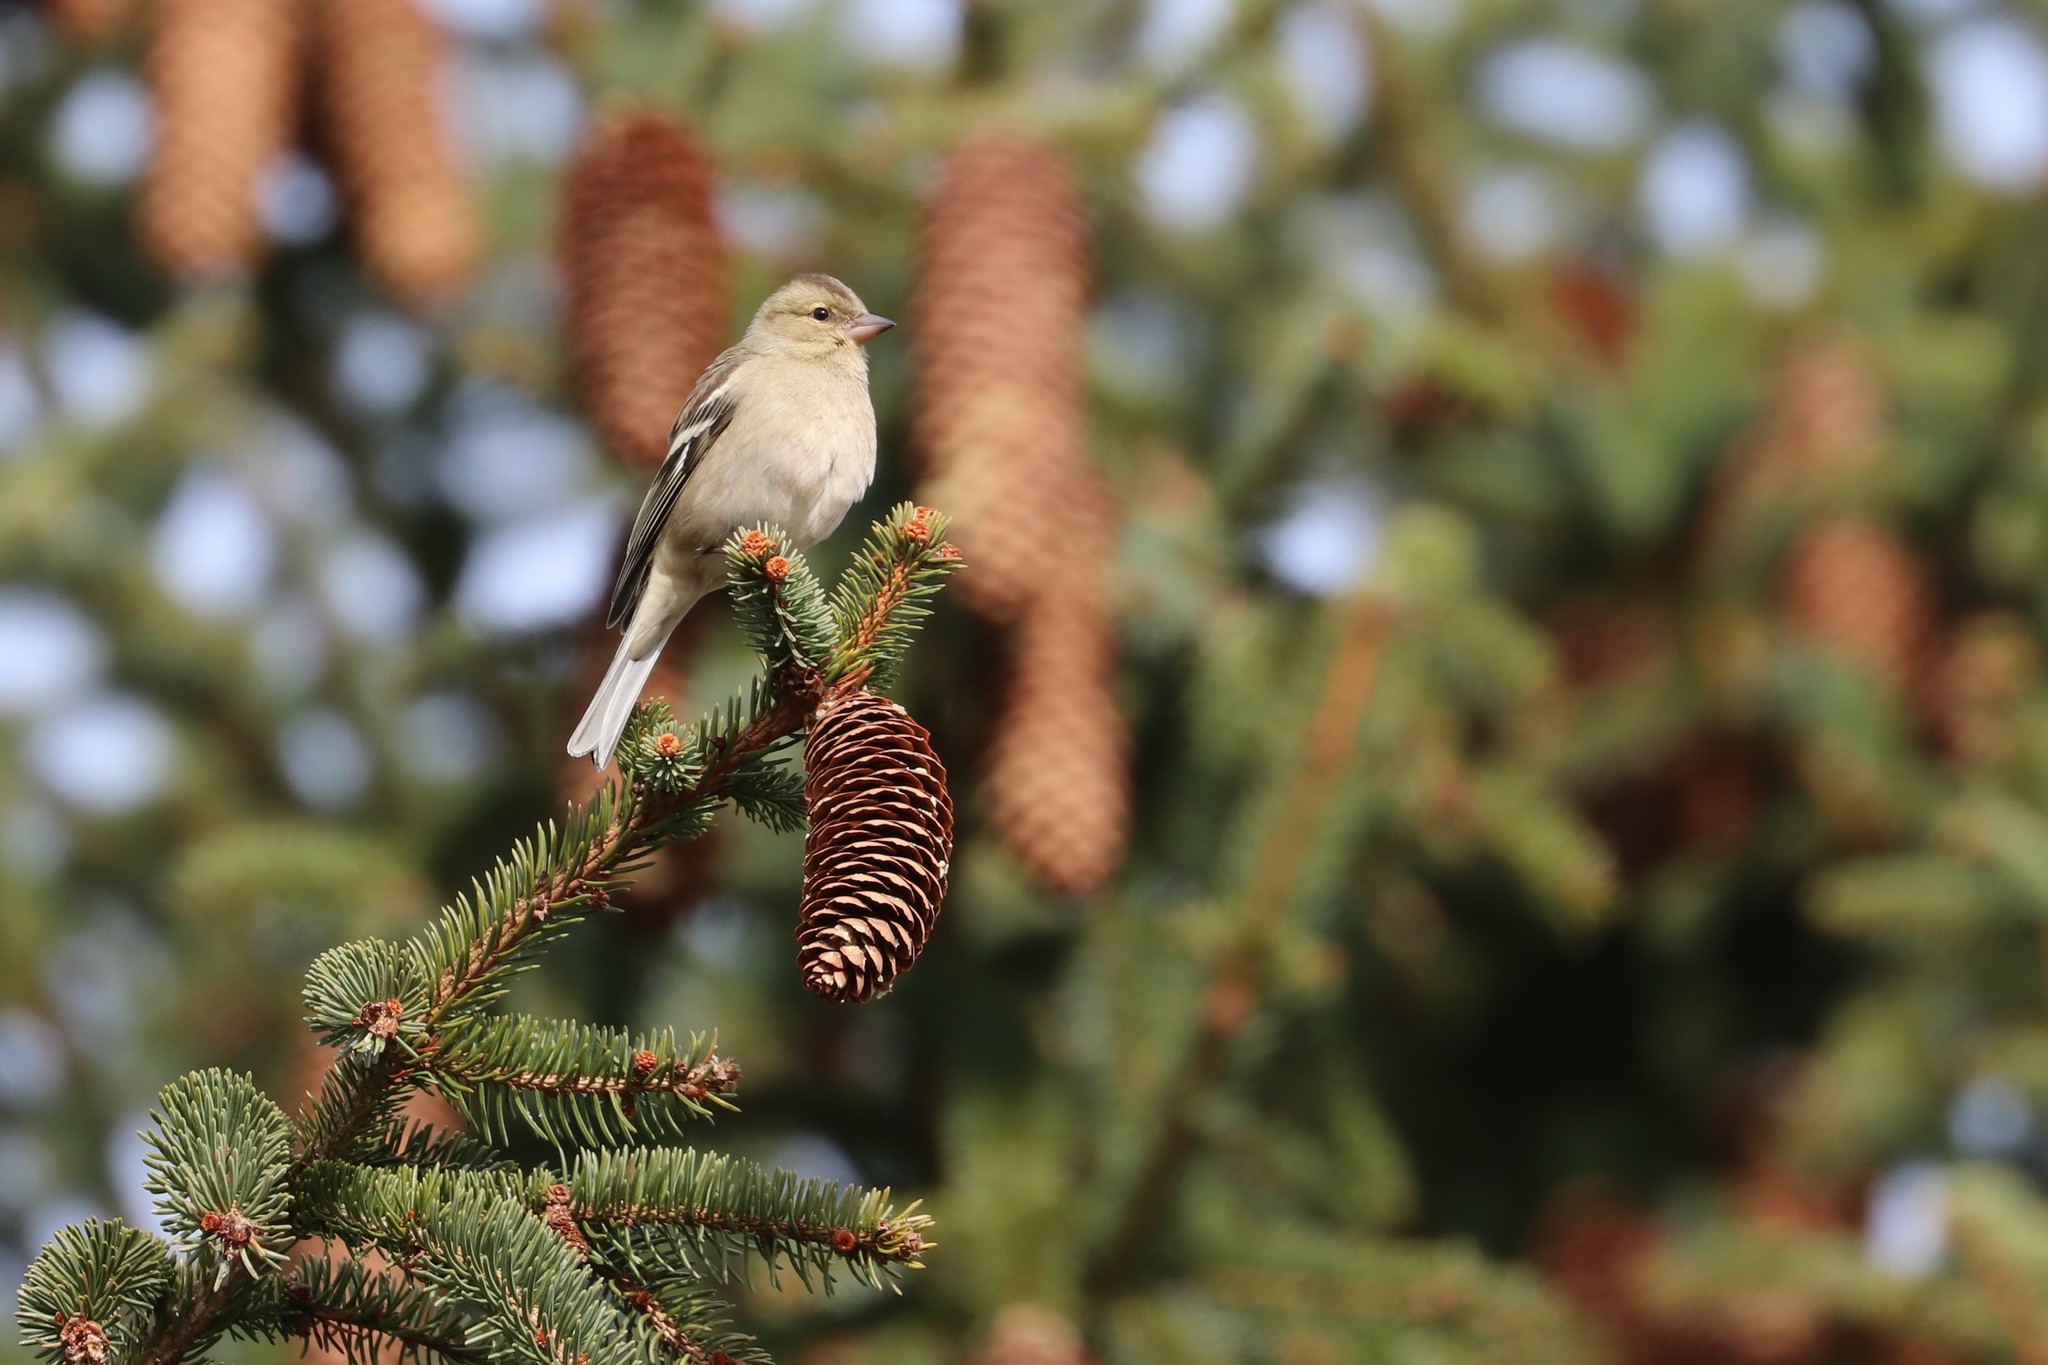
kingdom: Animalia
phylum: Chordata
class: Aves
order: Passeriformes
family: Fringillidae
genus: Fringilla
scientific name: Fringilla coelebs
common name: Common chaffinch
